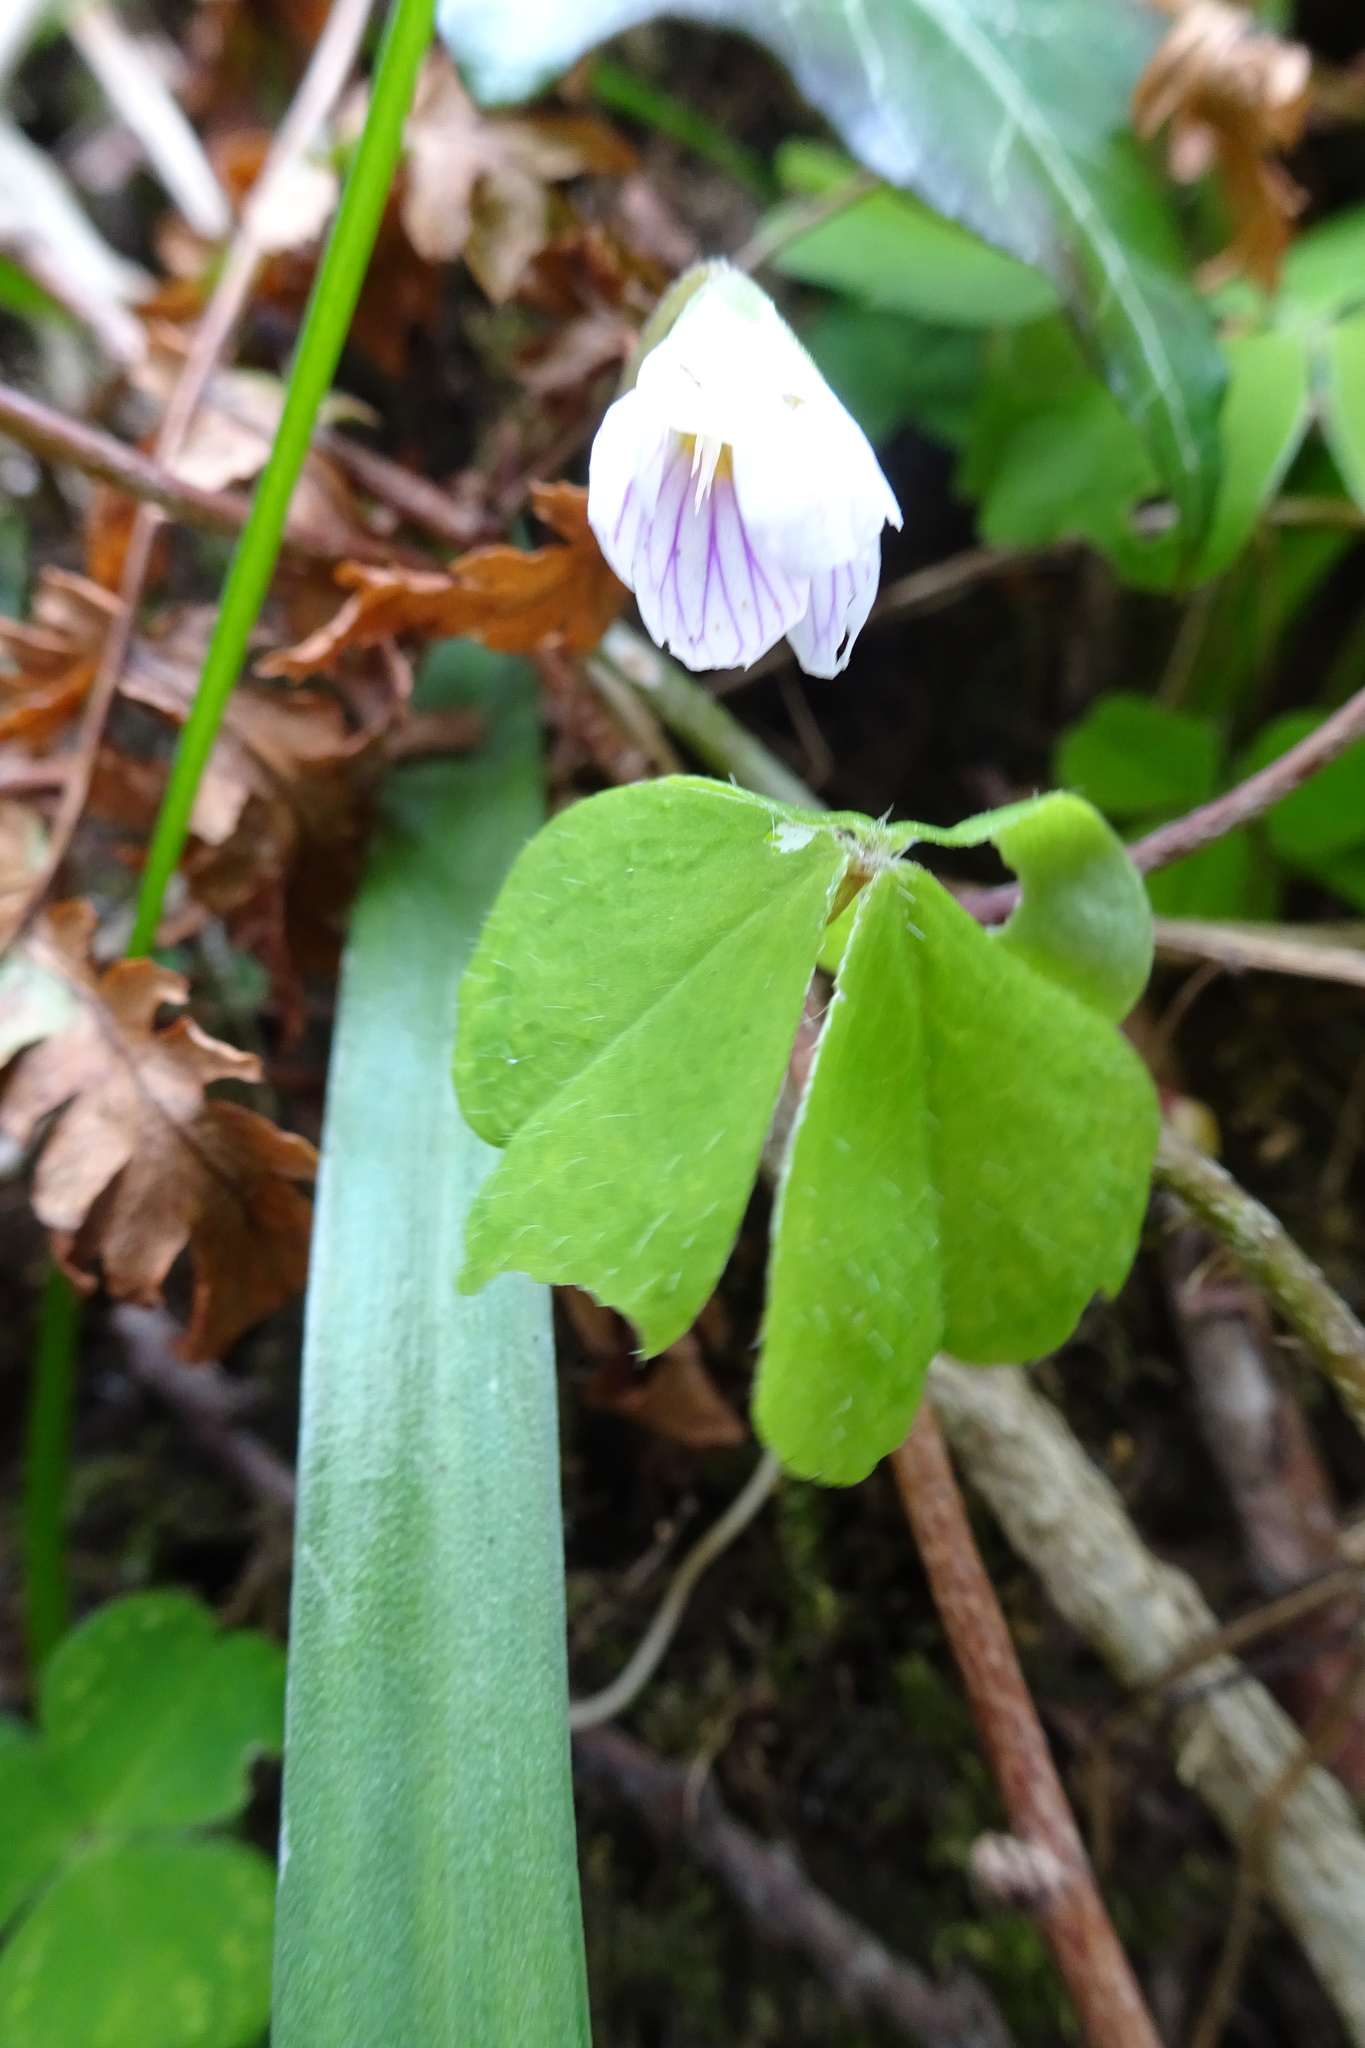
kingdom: Plantae
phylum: Tracheophyta
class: Magnoliopsida
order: Oxalidales
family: Oxalidaceae
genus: Oxalis
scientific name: Oxalis acetosella
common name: Wood-sorrel
